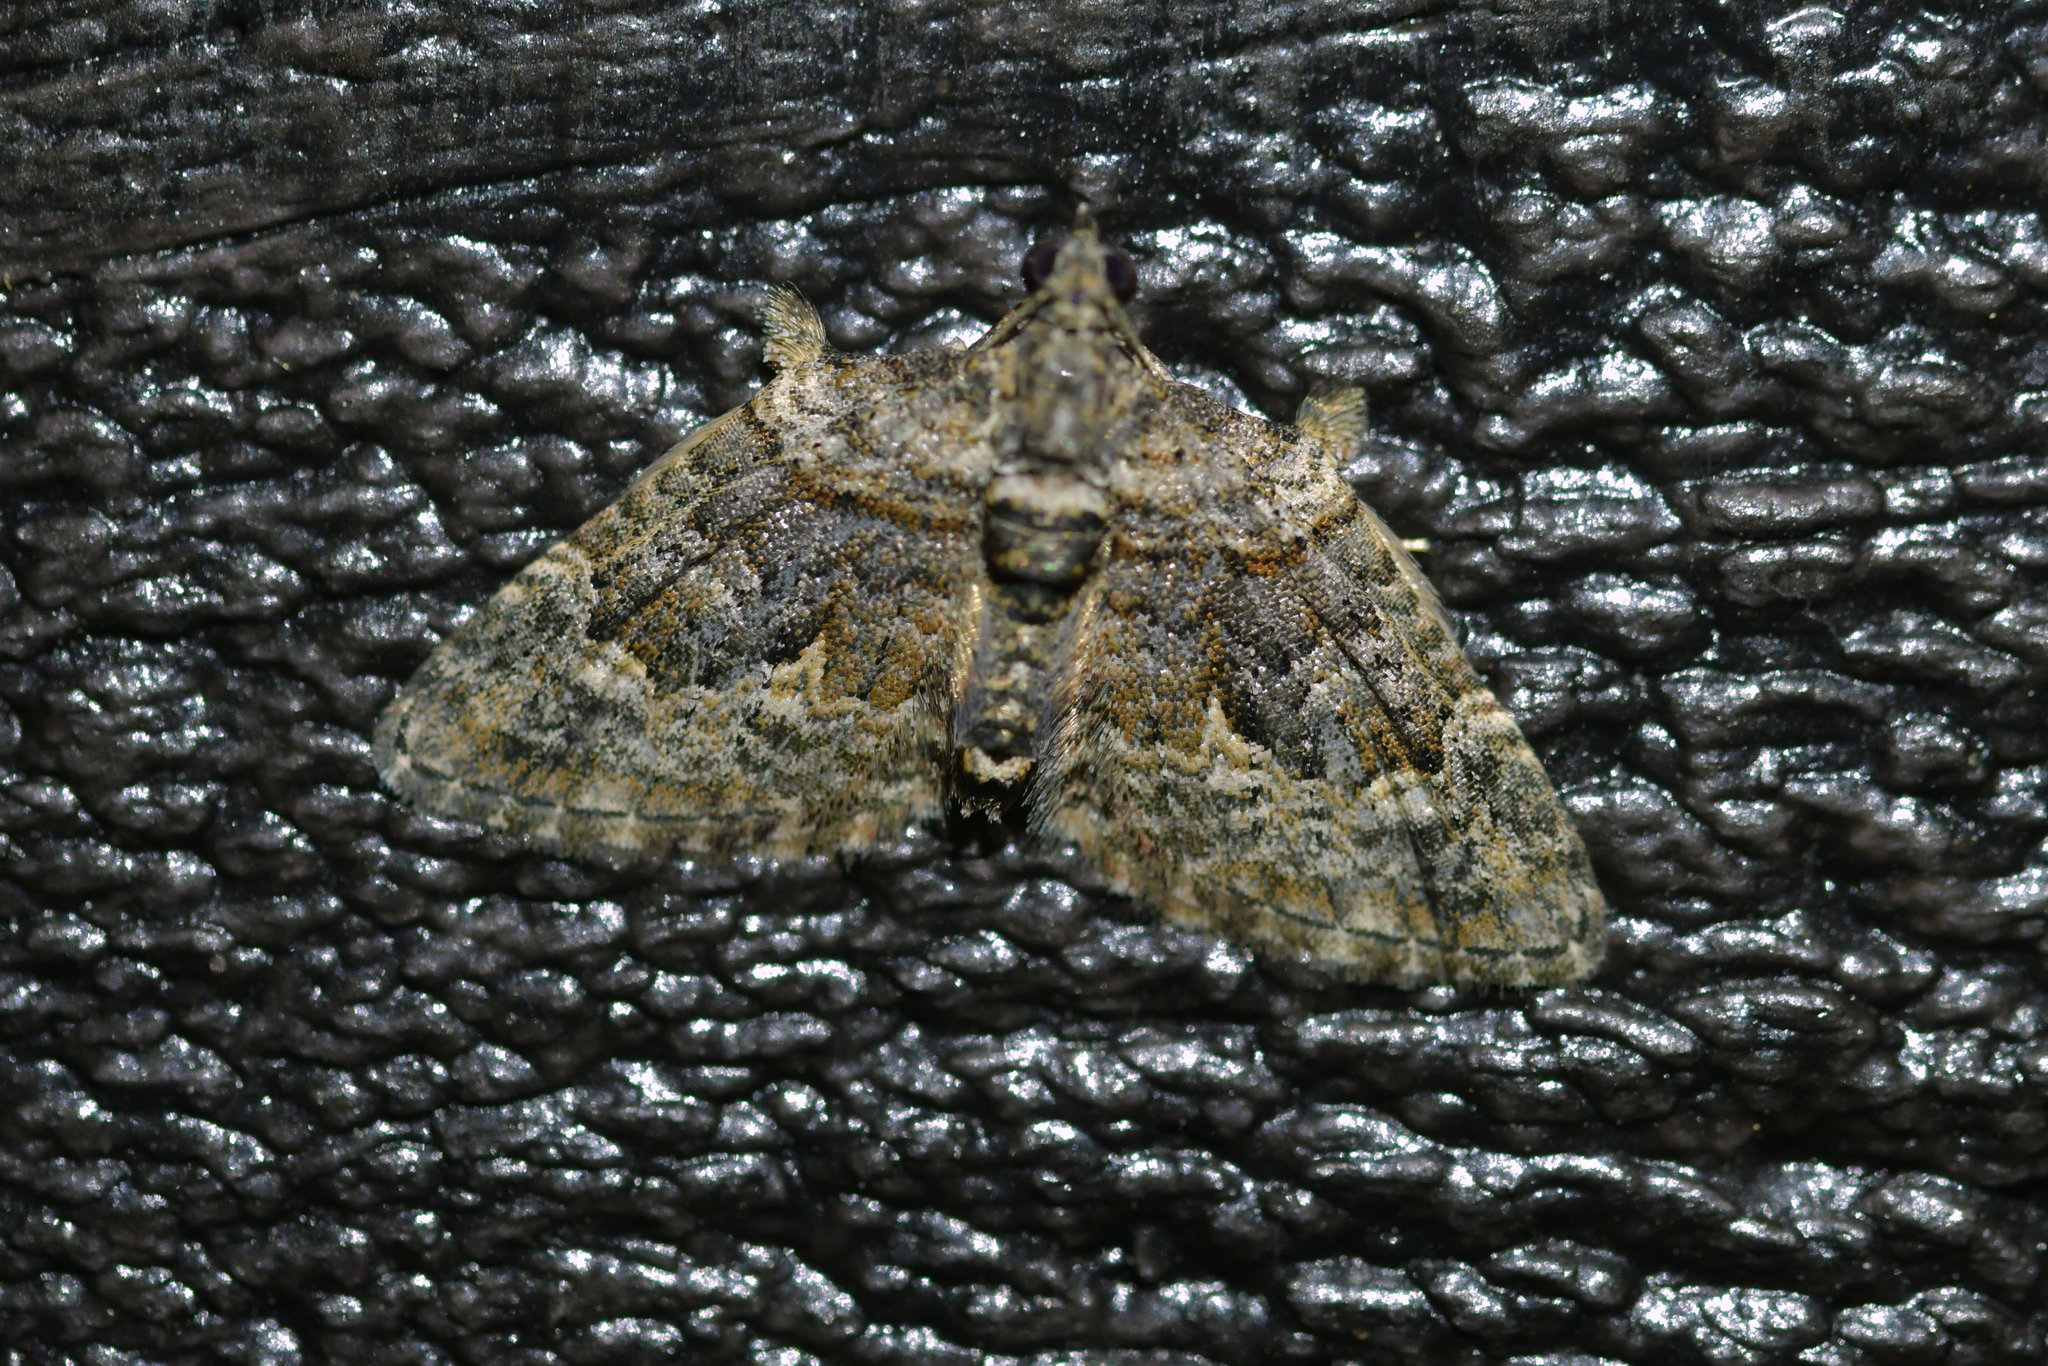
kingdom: Animalia
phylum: Arthropoda
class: Insecta
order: Lepidoptera
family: Geometridae
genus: Phrissogonus
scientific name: Phrissogonus laticostata
